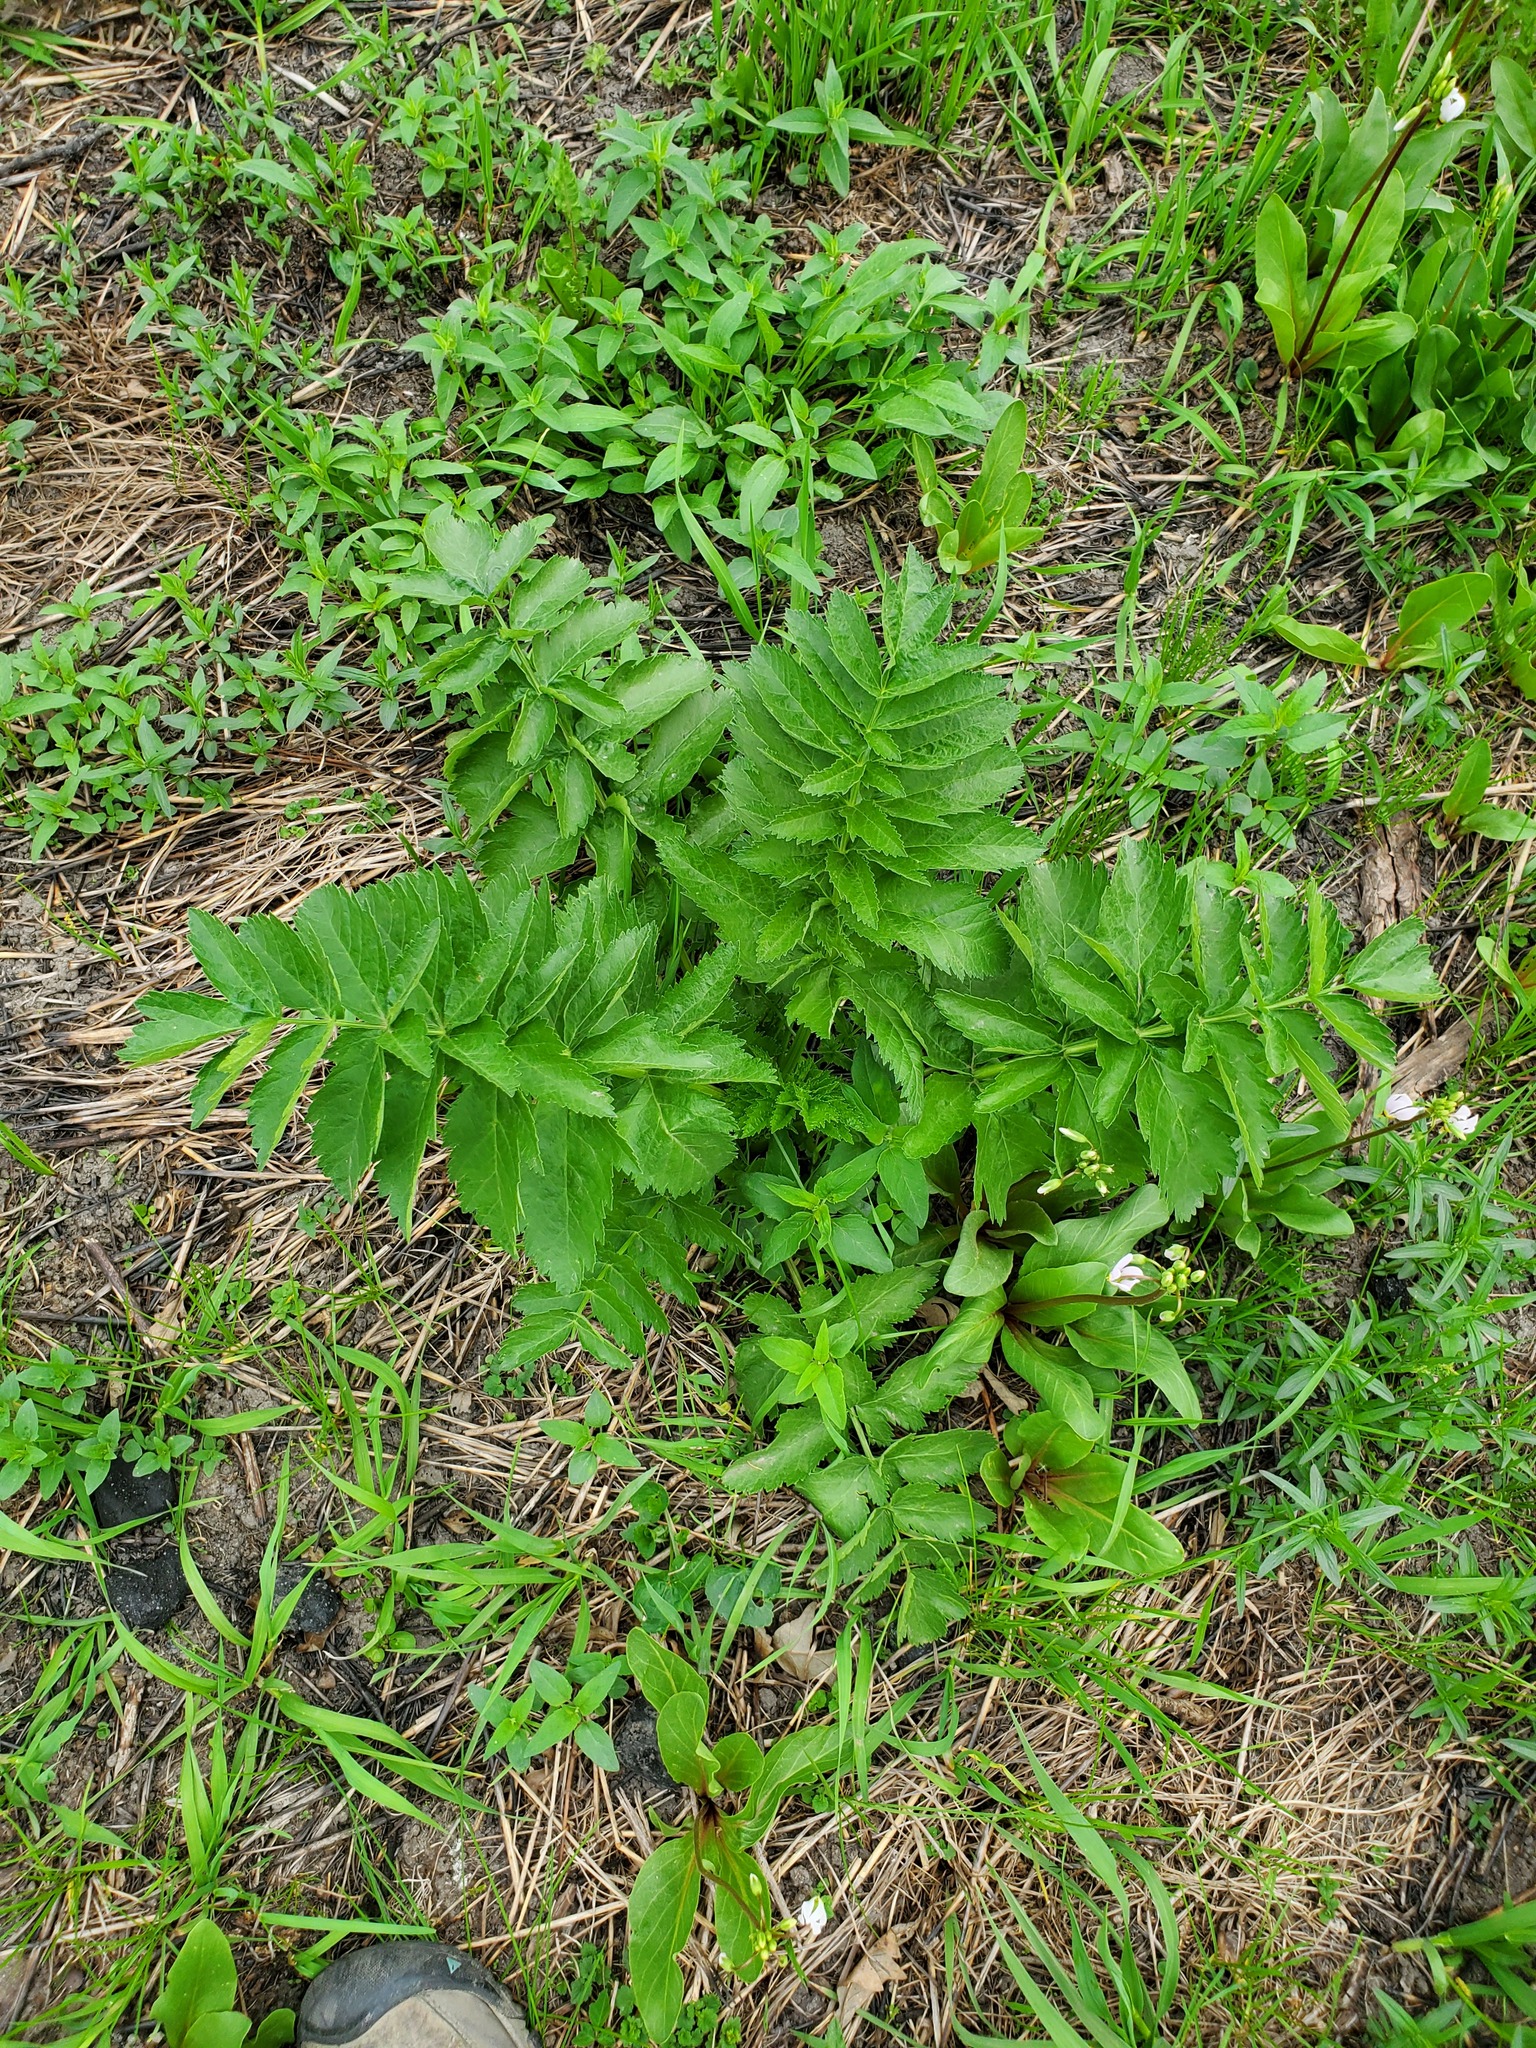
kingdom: Plantae
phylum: Tracheophyta
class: Magnoliopsida
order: Apiales
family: Apiaceae
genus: Pastinaca
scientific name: Pastinaca sativa
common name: Wild parsnip
